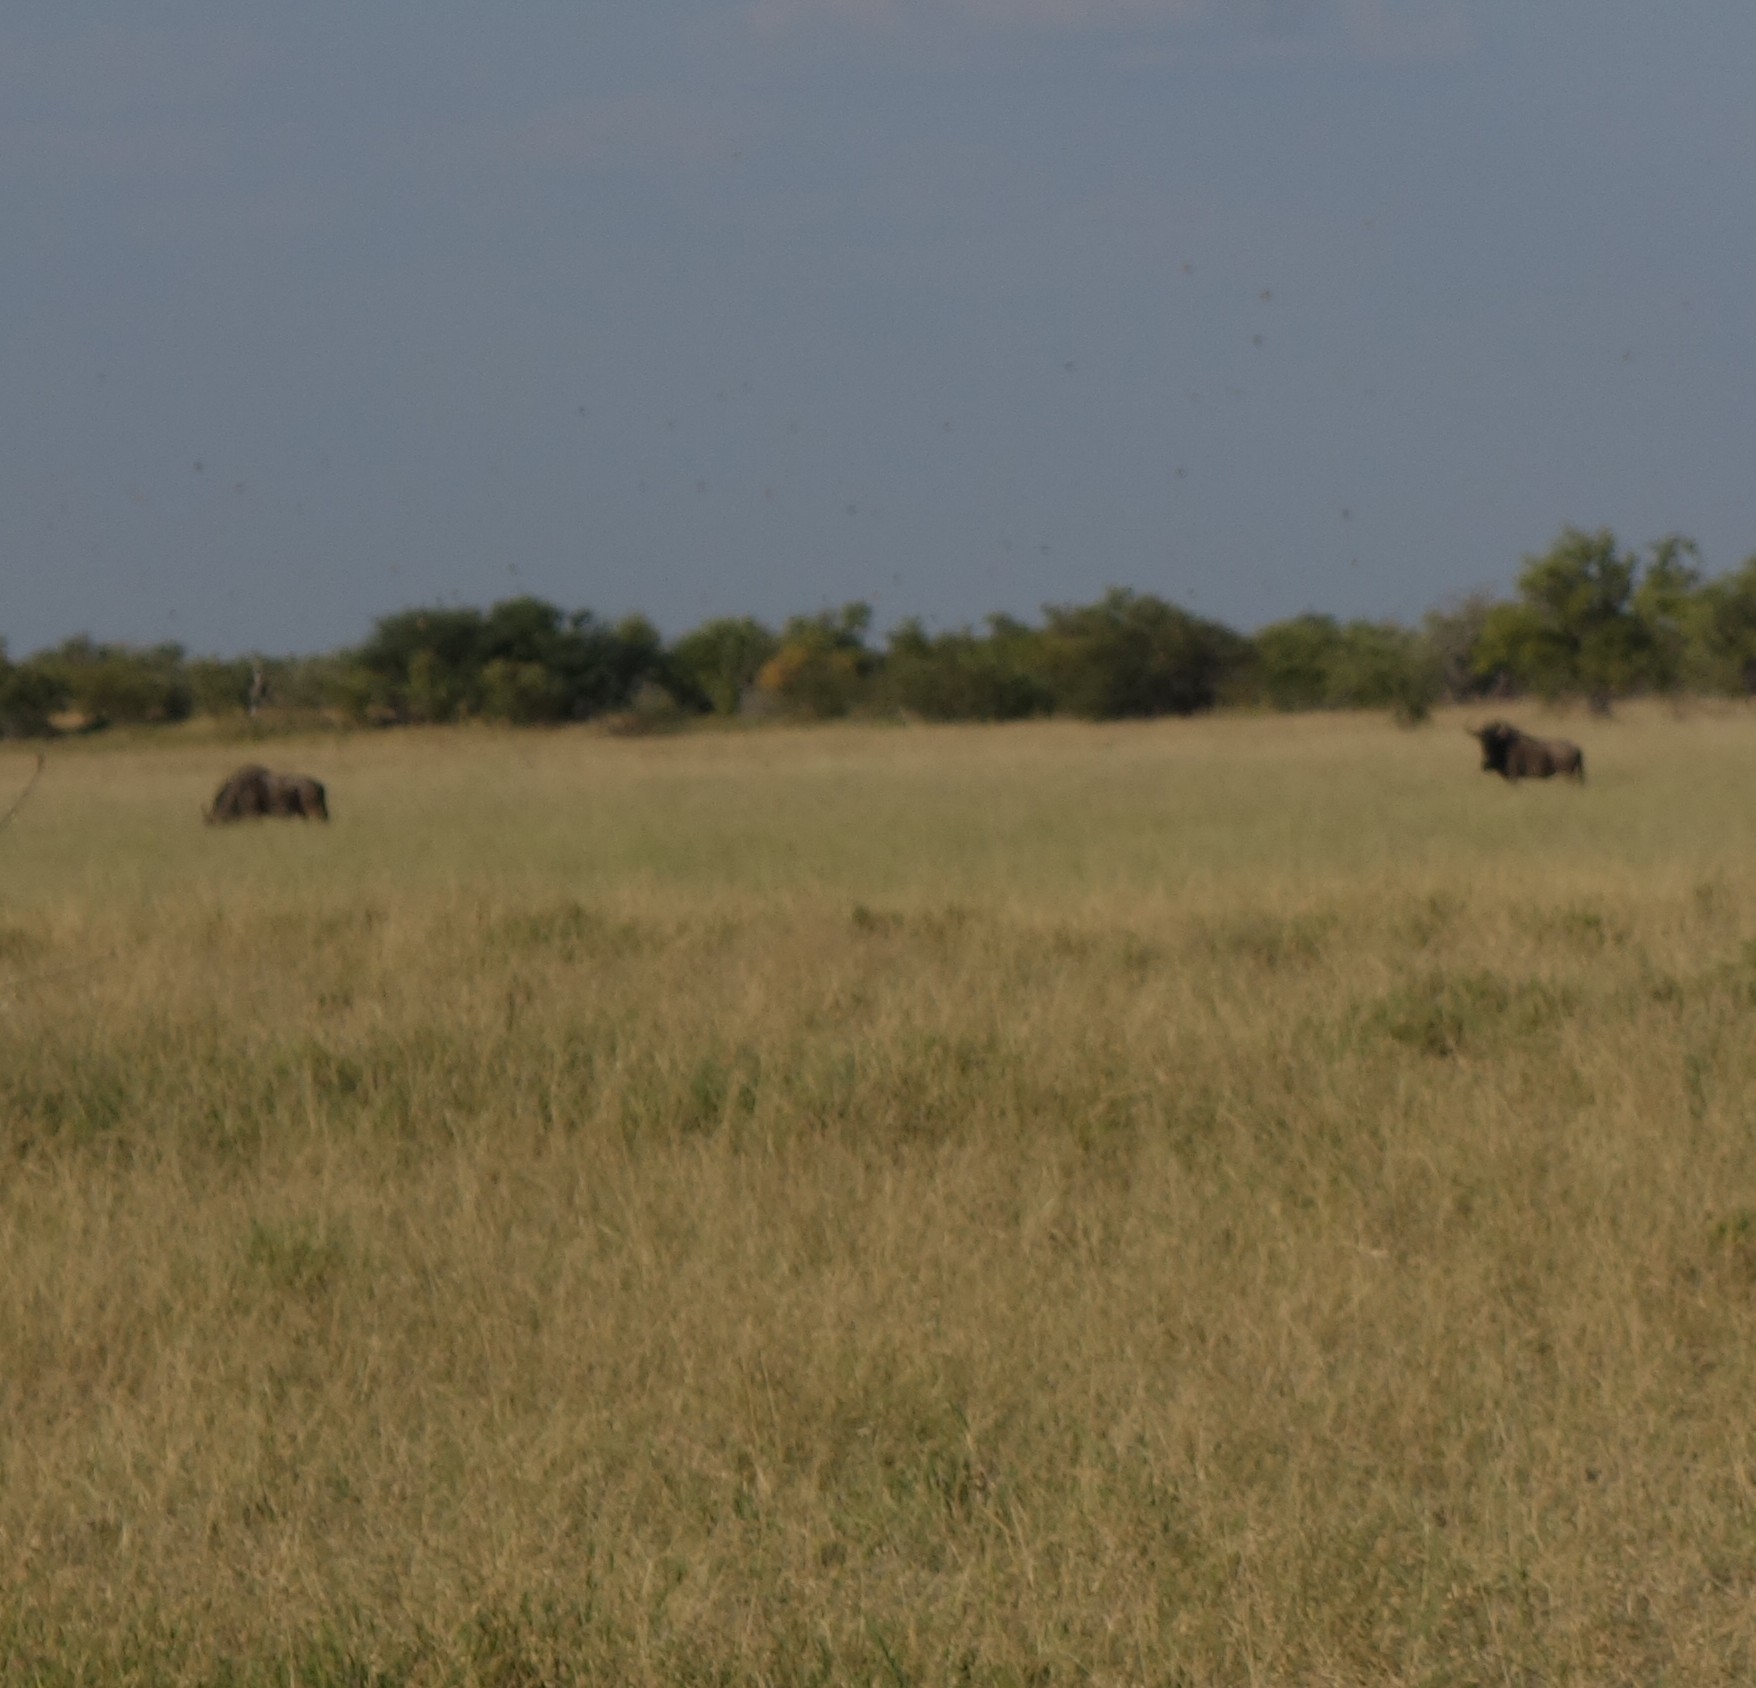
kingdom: Animalia
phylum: Chordata
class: Mammalia
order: Artiodactyla
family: Bovidae
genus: Connochaetes
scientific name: Connochaetes taurinus
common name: Blue wildebeest
